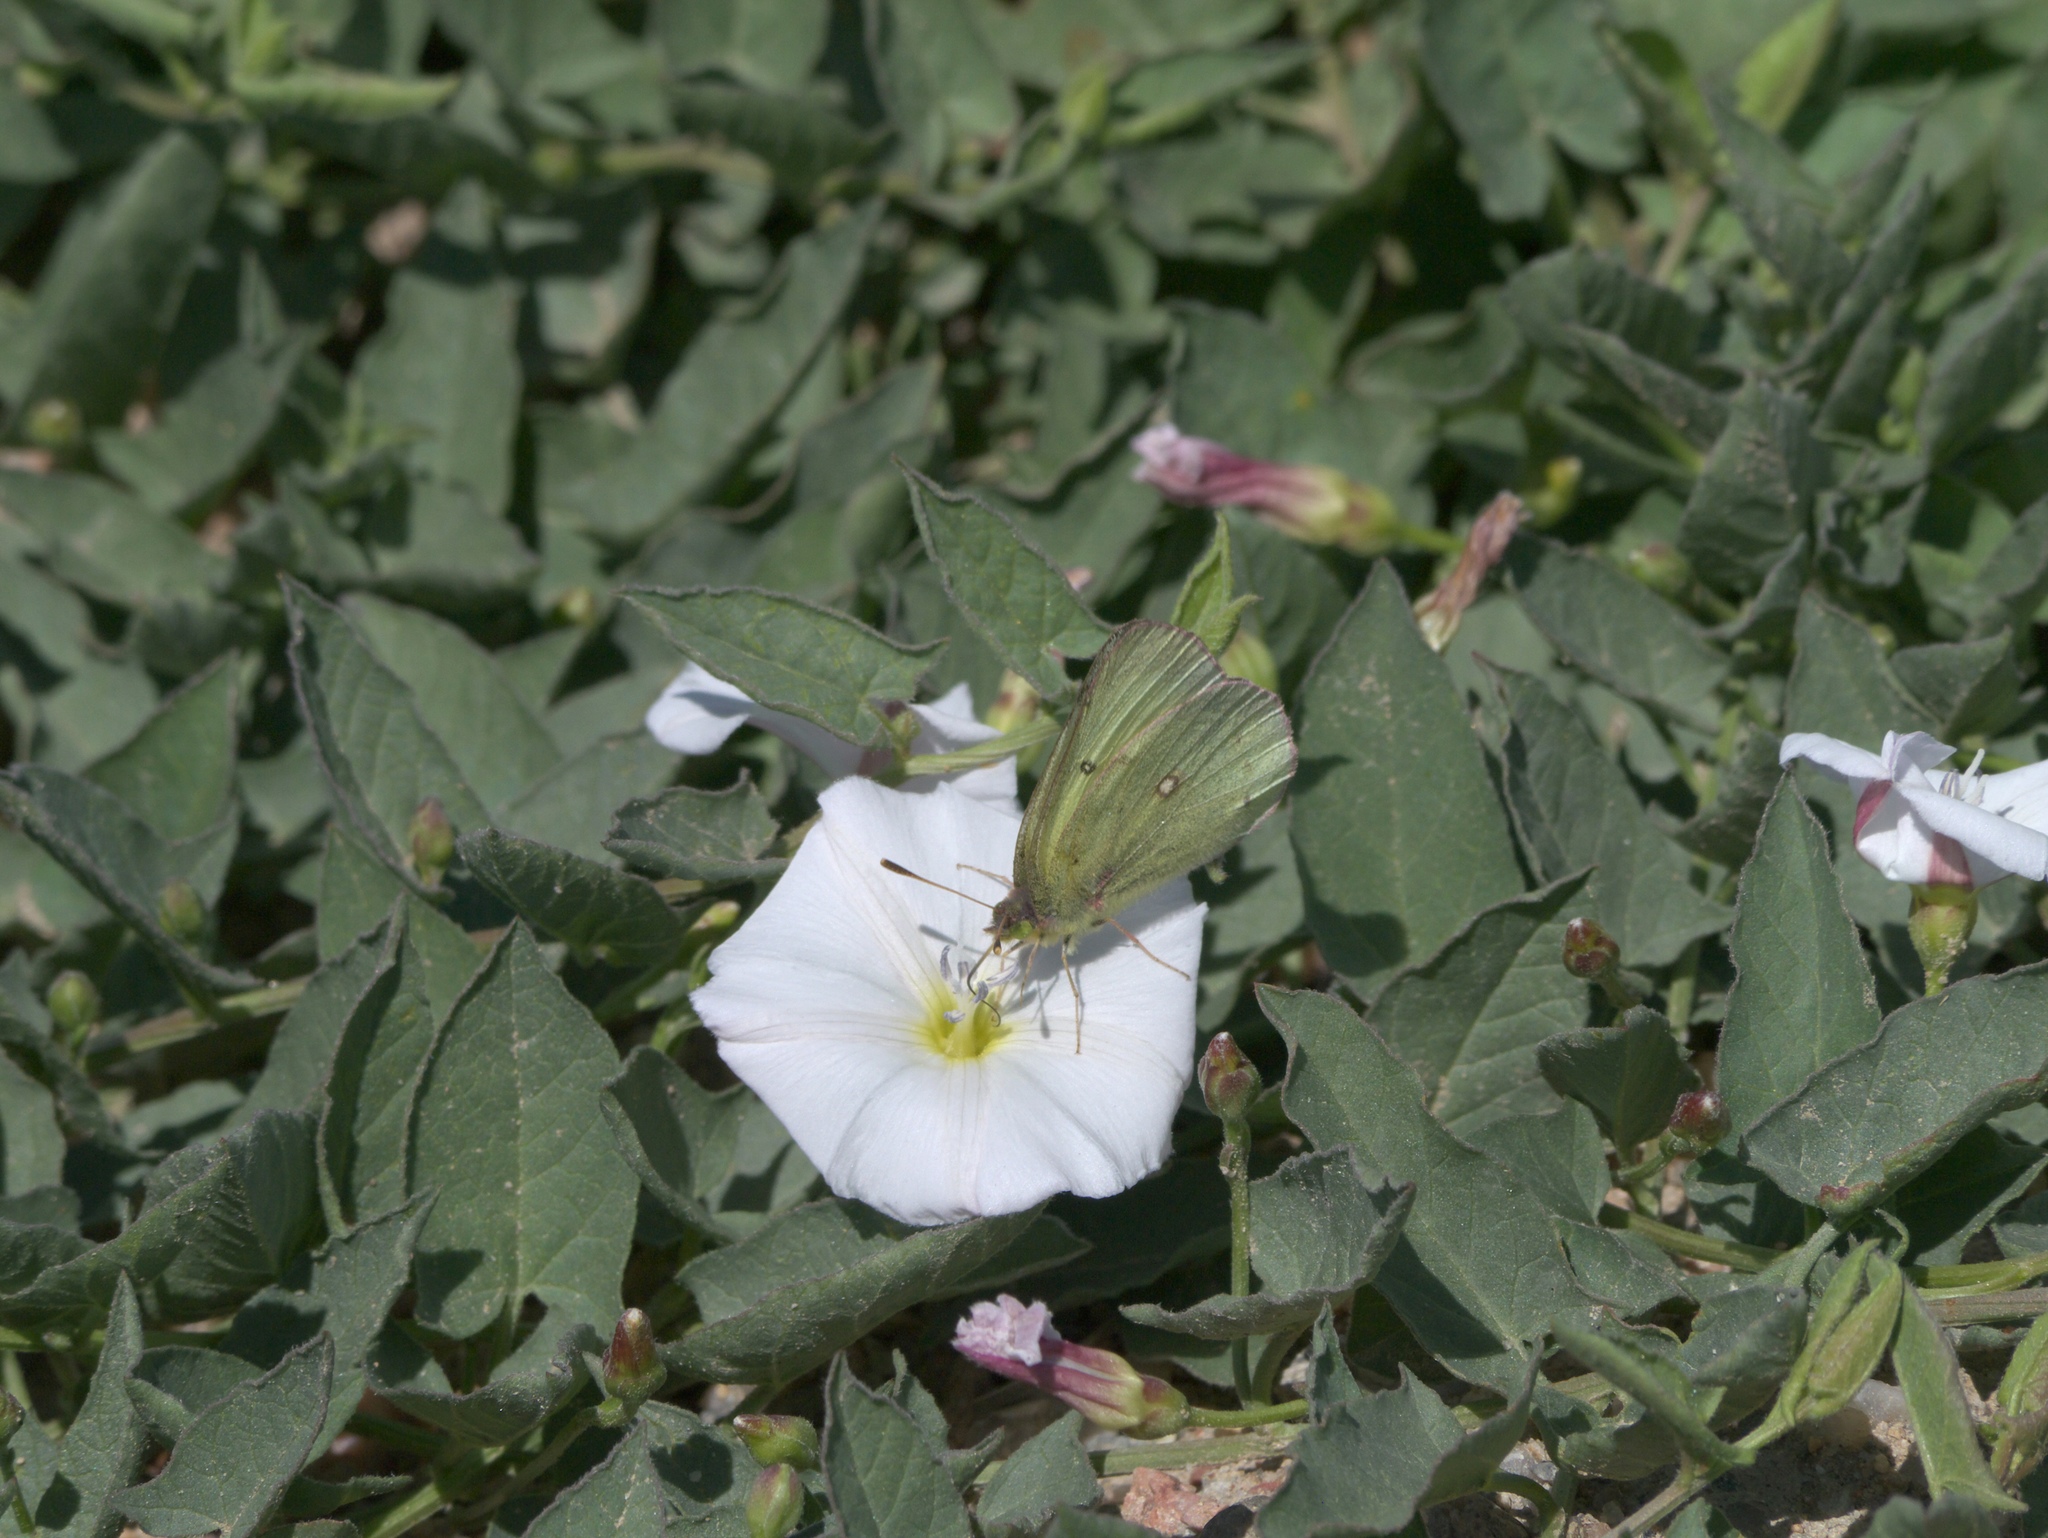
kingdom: Plantae
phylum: Tracheophyta
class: Magnoliopsida
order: Solanales
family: Convolvulaceae
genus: Convolvulus
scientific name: Convolvulus arvensis
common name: Field bindweed
